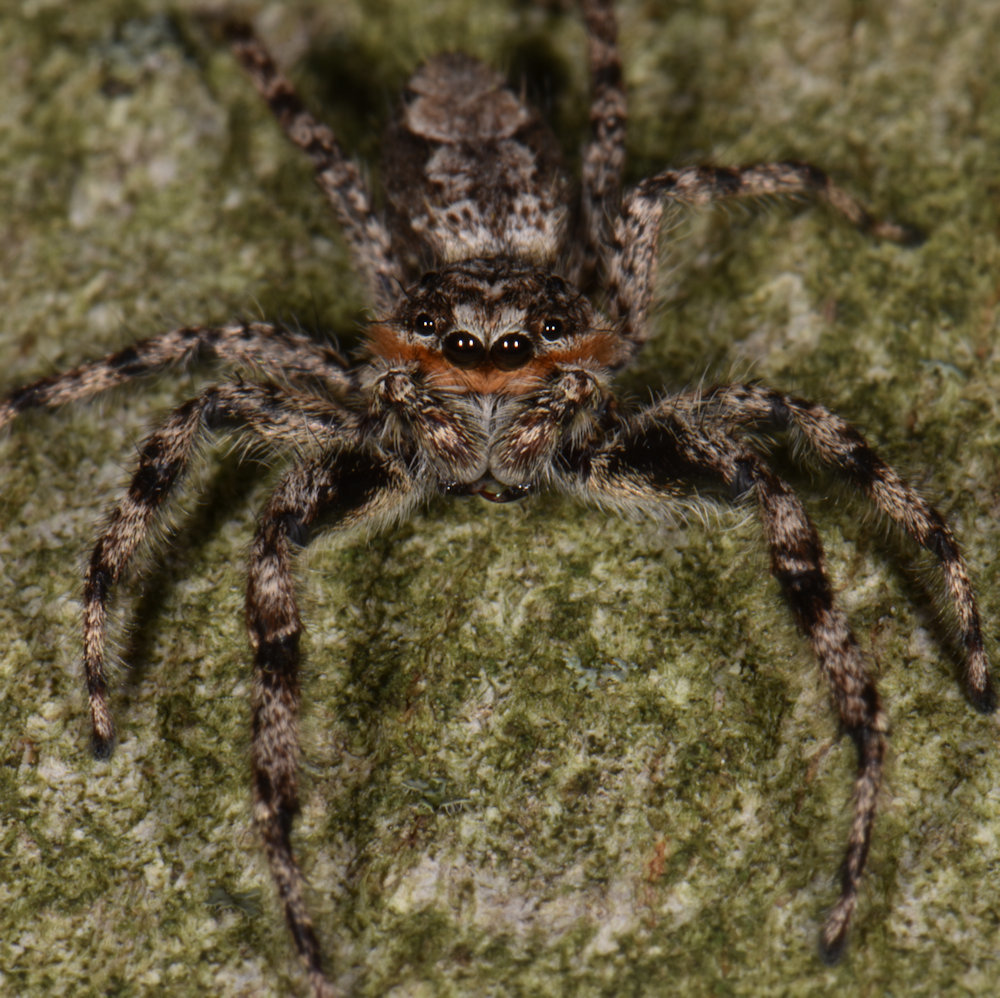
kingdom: Animalia
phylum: Arthropoda
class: Arachnida
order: Araneae
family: Salticidae
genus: Platycryptus
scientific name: Platycryptus undatus
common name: Tan jumping spider
